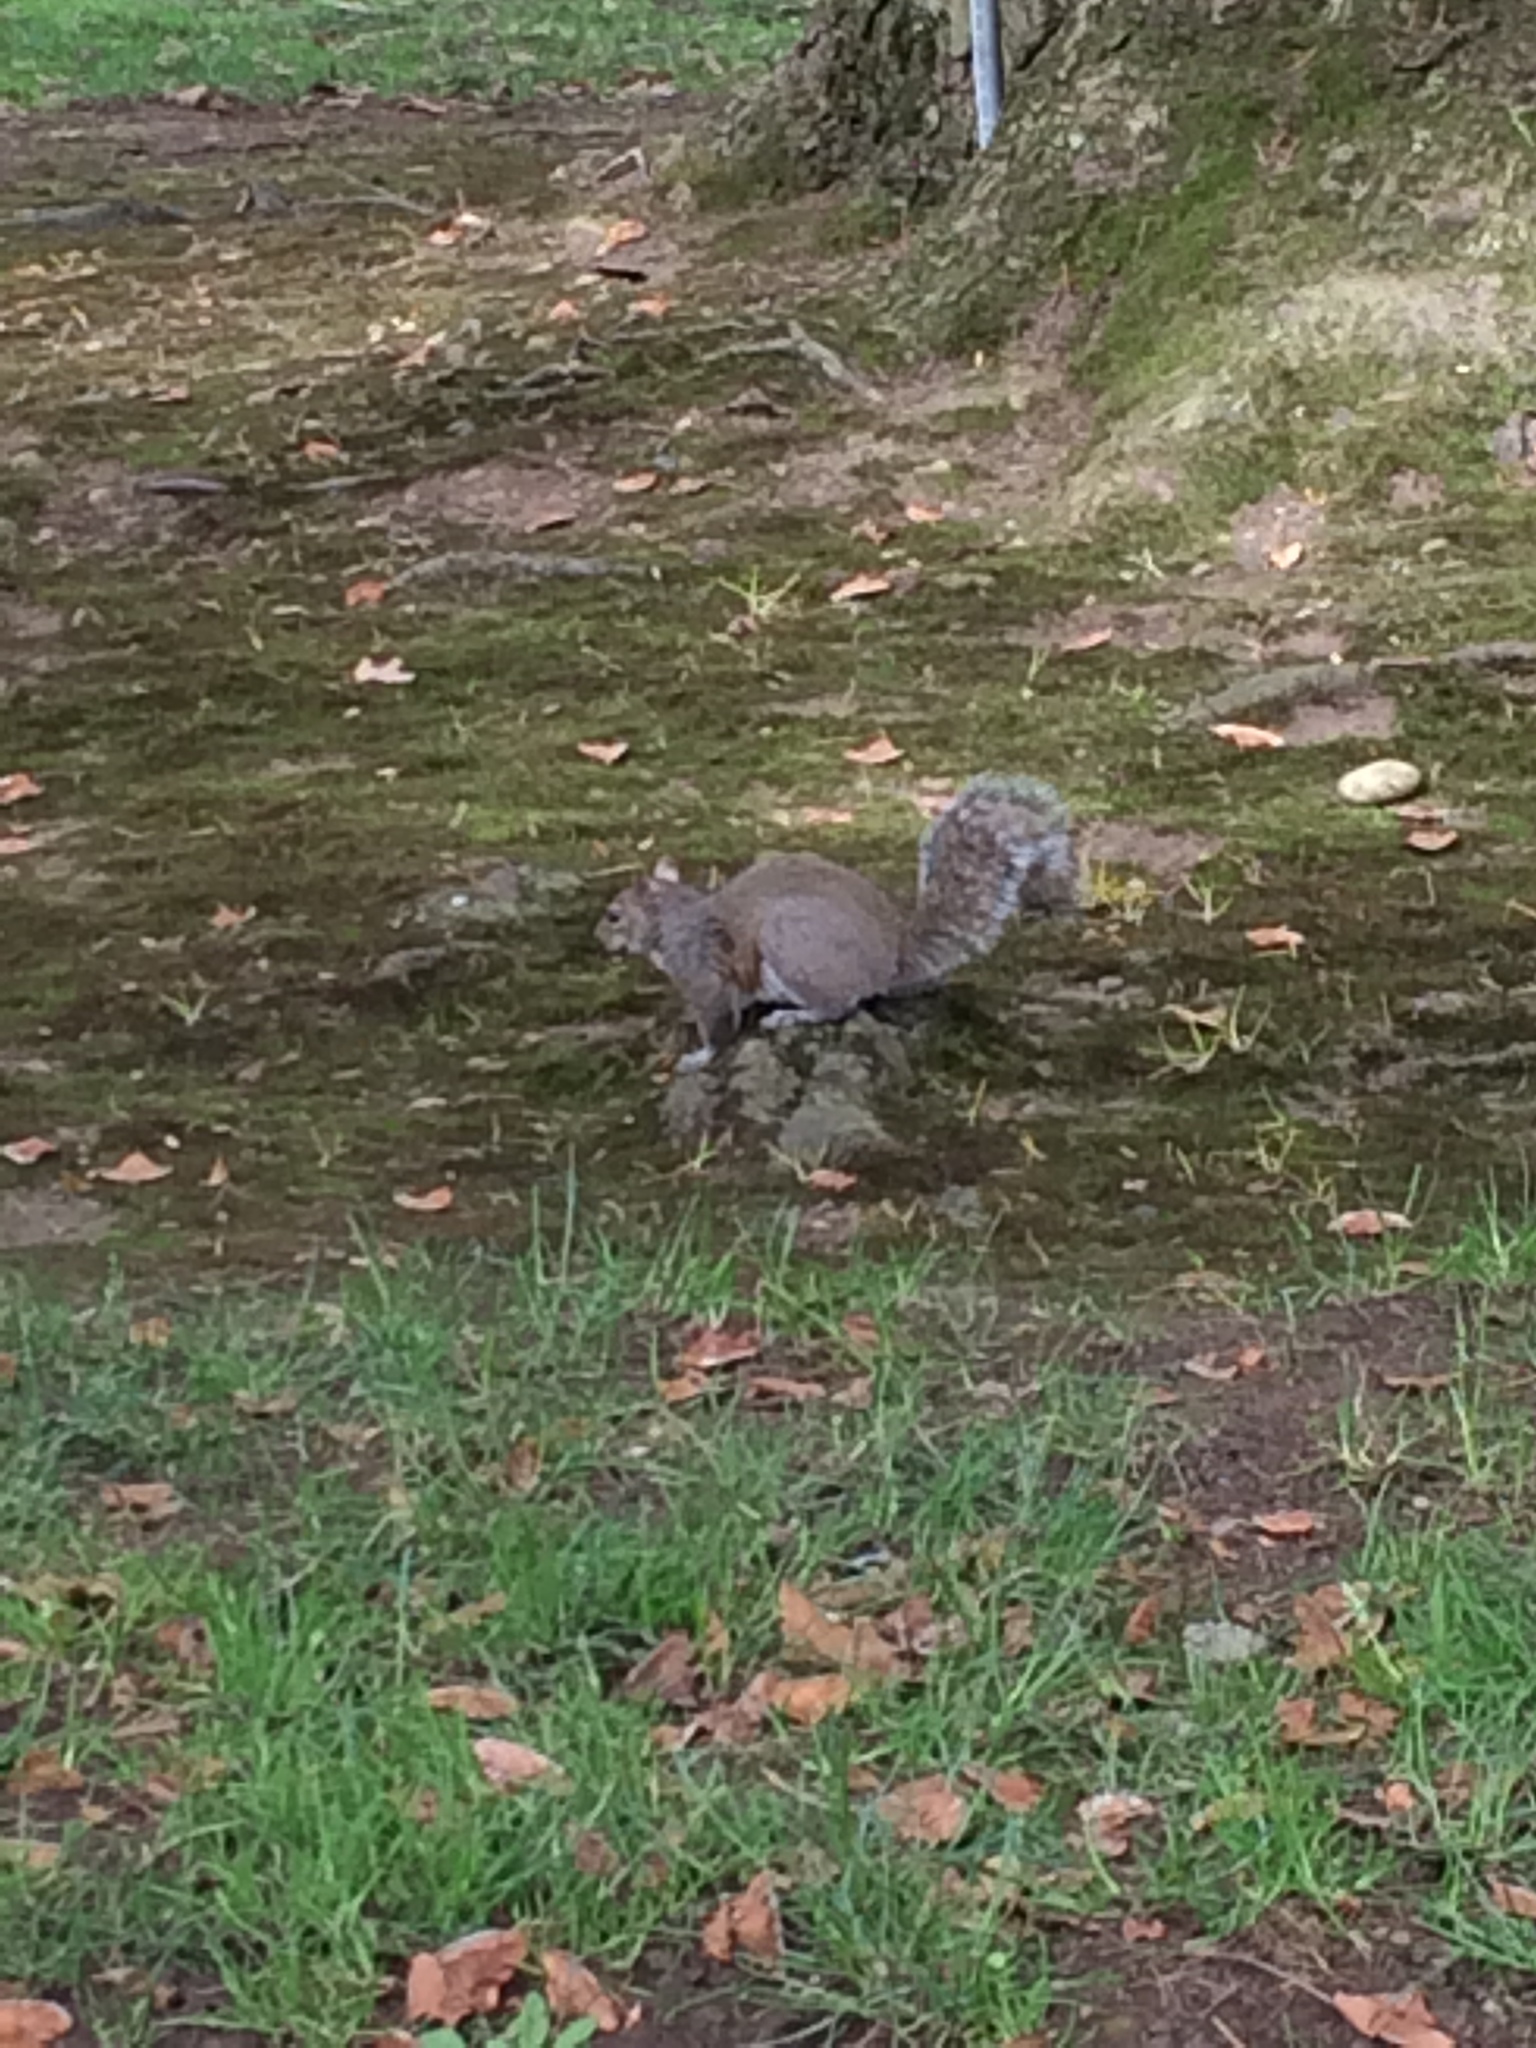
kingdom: Animalia
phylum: Chordata
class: Mammalia
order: Rodentia
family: Sciuridae
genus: Sciurus
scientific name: Sciurus carolinensis
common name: Eastern gray squirrel
